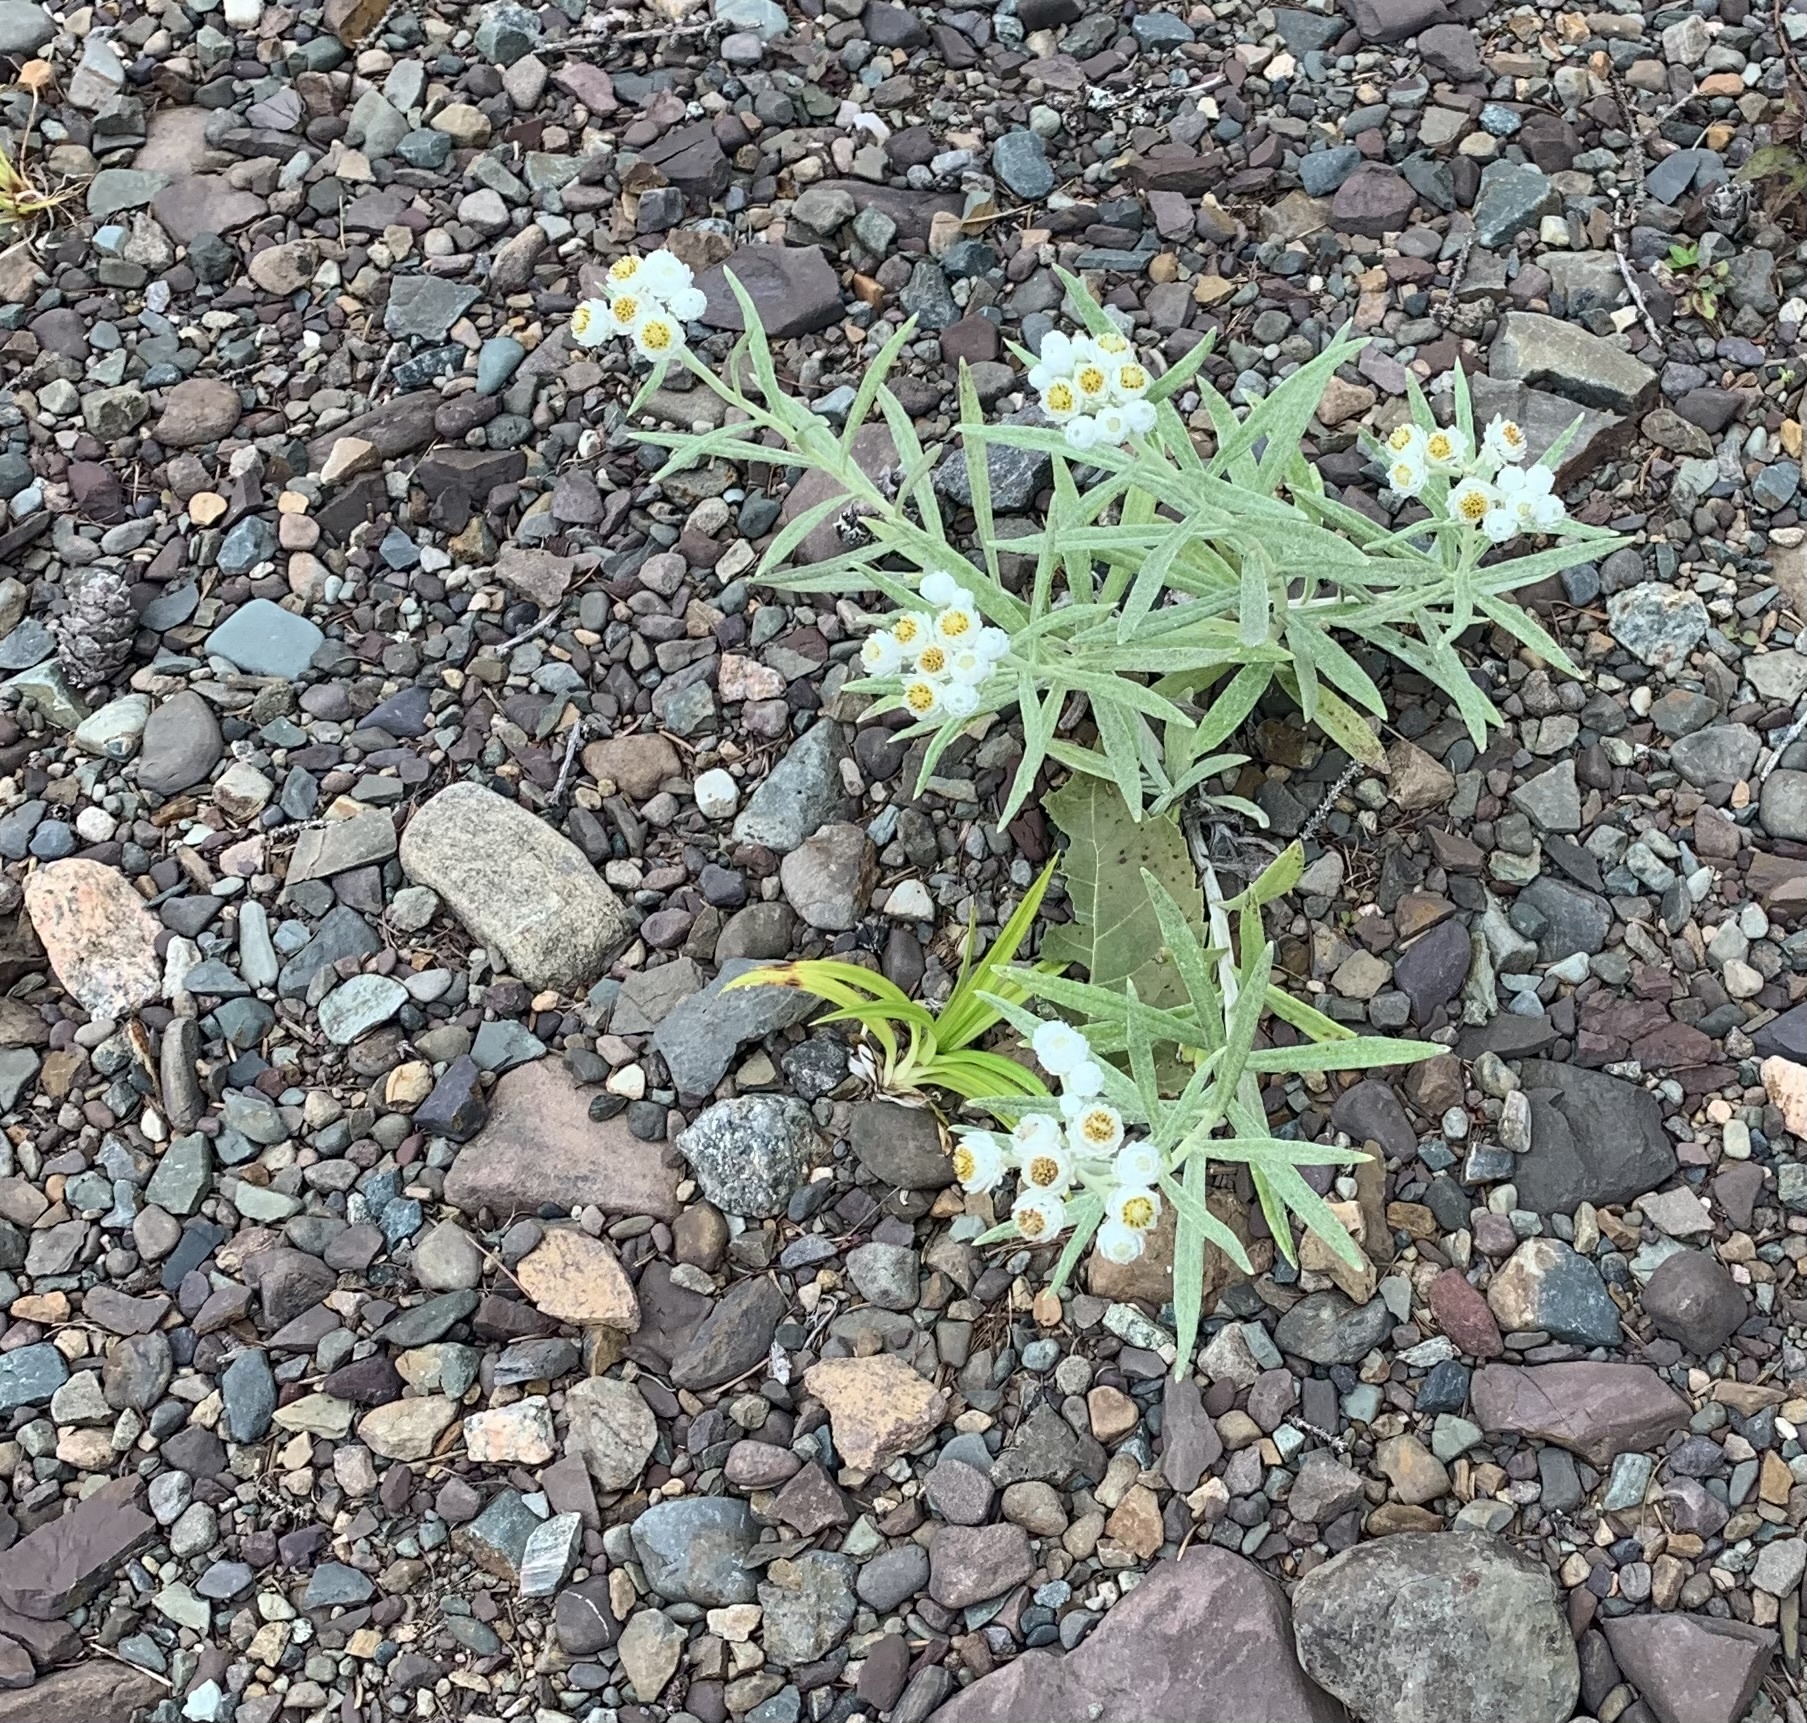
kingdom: Plantae
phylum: Tracheophyta
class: Magnoliopsida
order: Asterales
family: Asteraceae
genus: Anaphalis
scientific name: Anaphalis margaritacea
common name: Pearly everlasting
